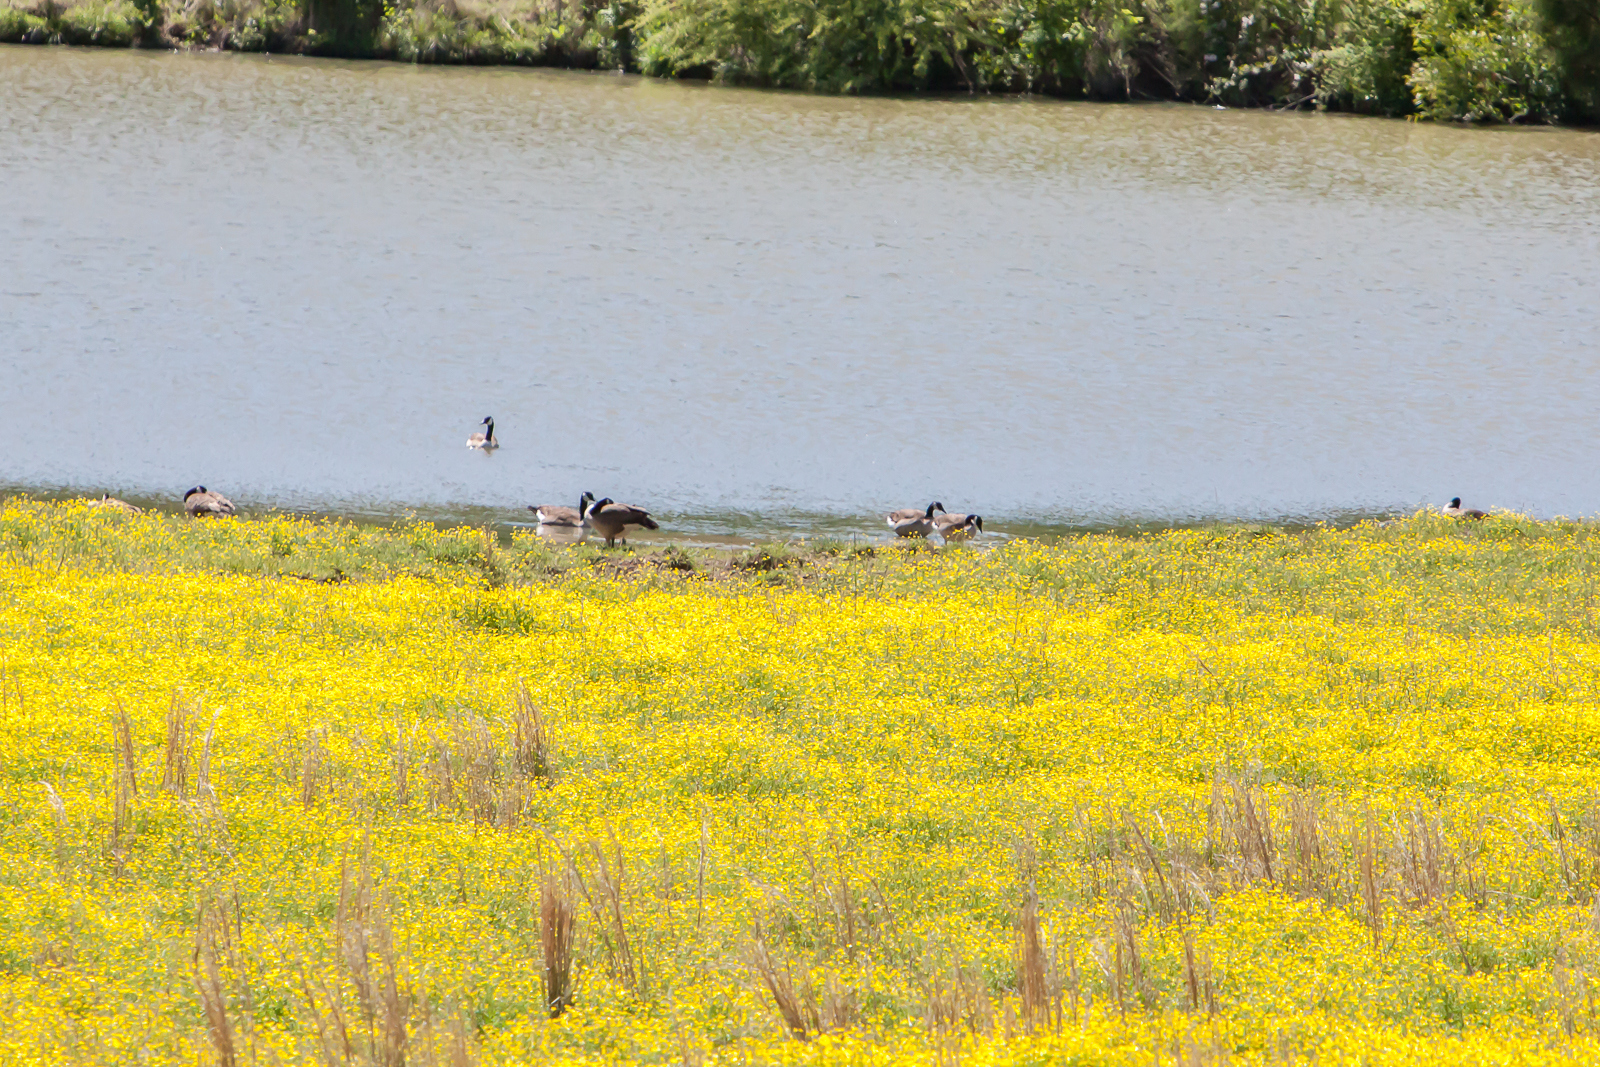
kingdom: Animalia
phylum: Chordata
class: Aves
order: Anseriformes
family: Anatidae
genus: Branta
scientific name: Branta canadensis
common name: Canada goose
